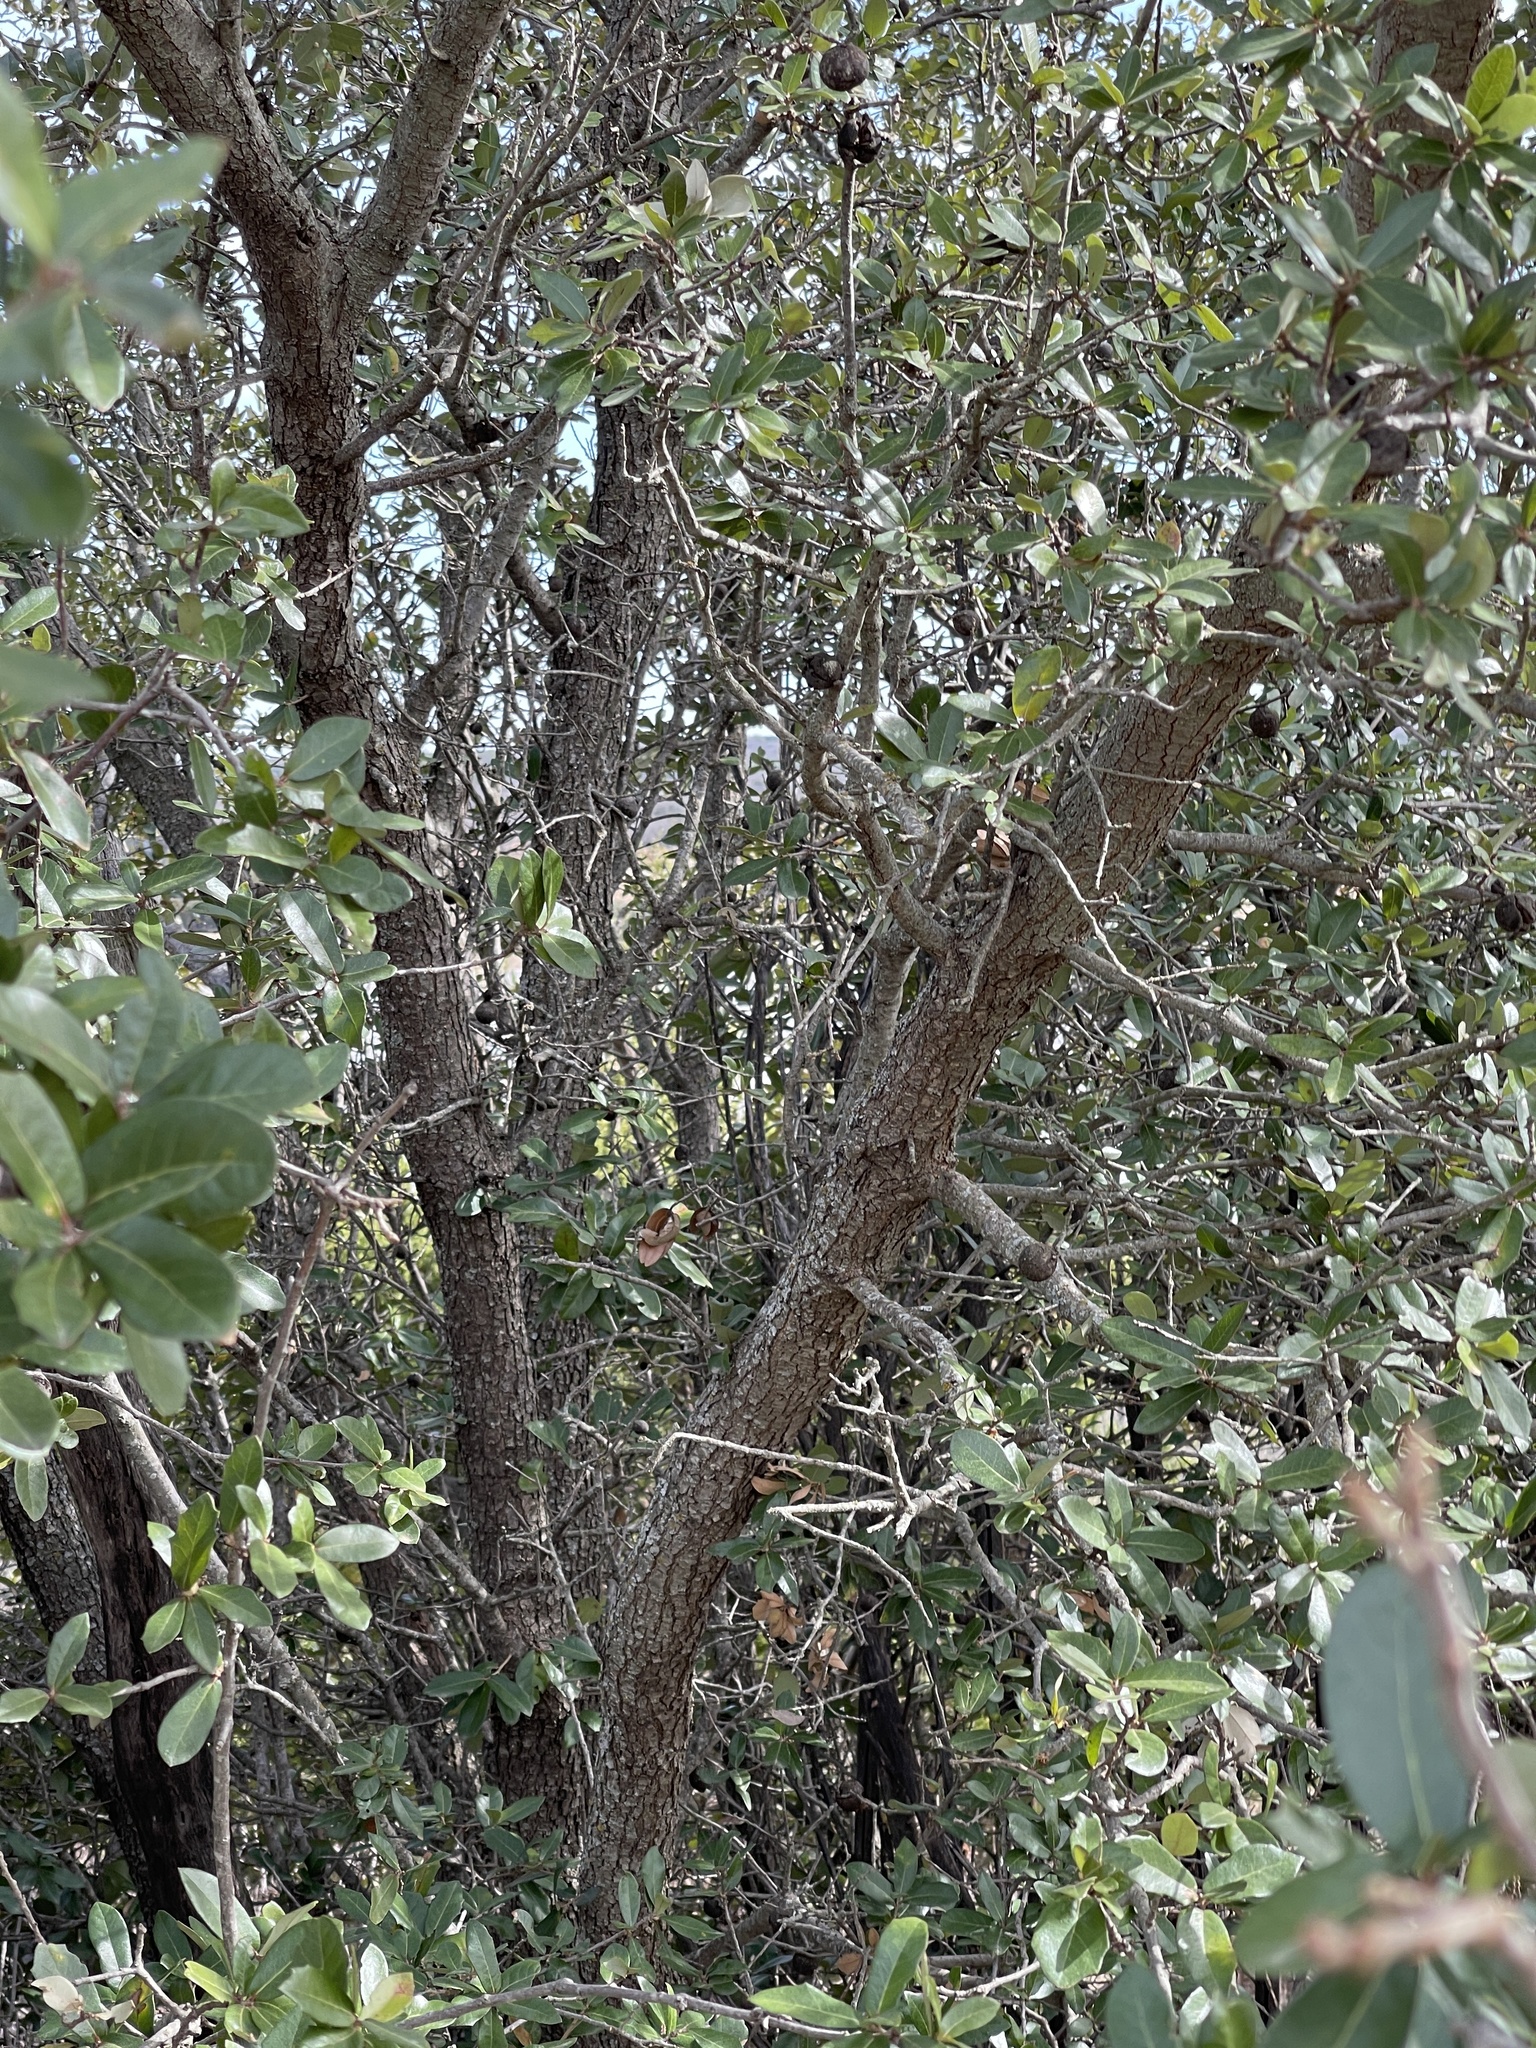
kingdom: Plantae
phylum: Tracheophyta
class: Magnoliopsida
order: Fagales
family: Fagaceae
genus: Quercus
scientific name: Quercus fusiformis
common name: Texas live oak
